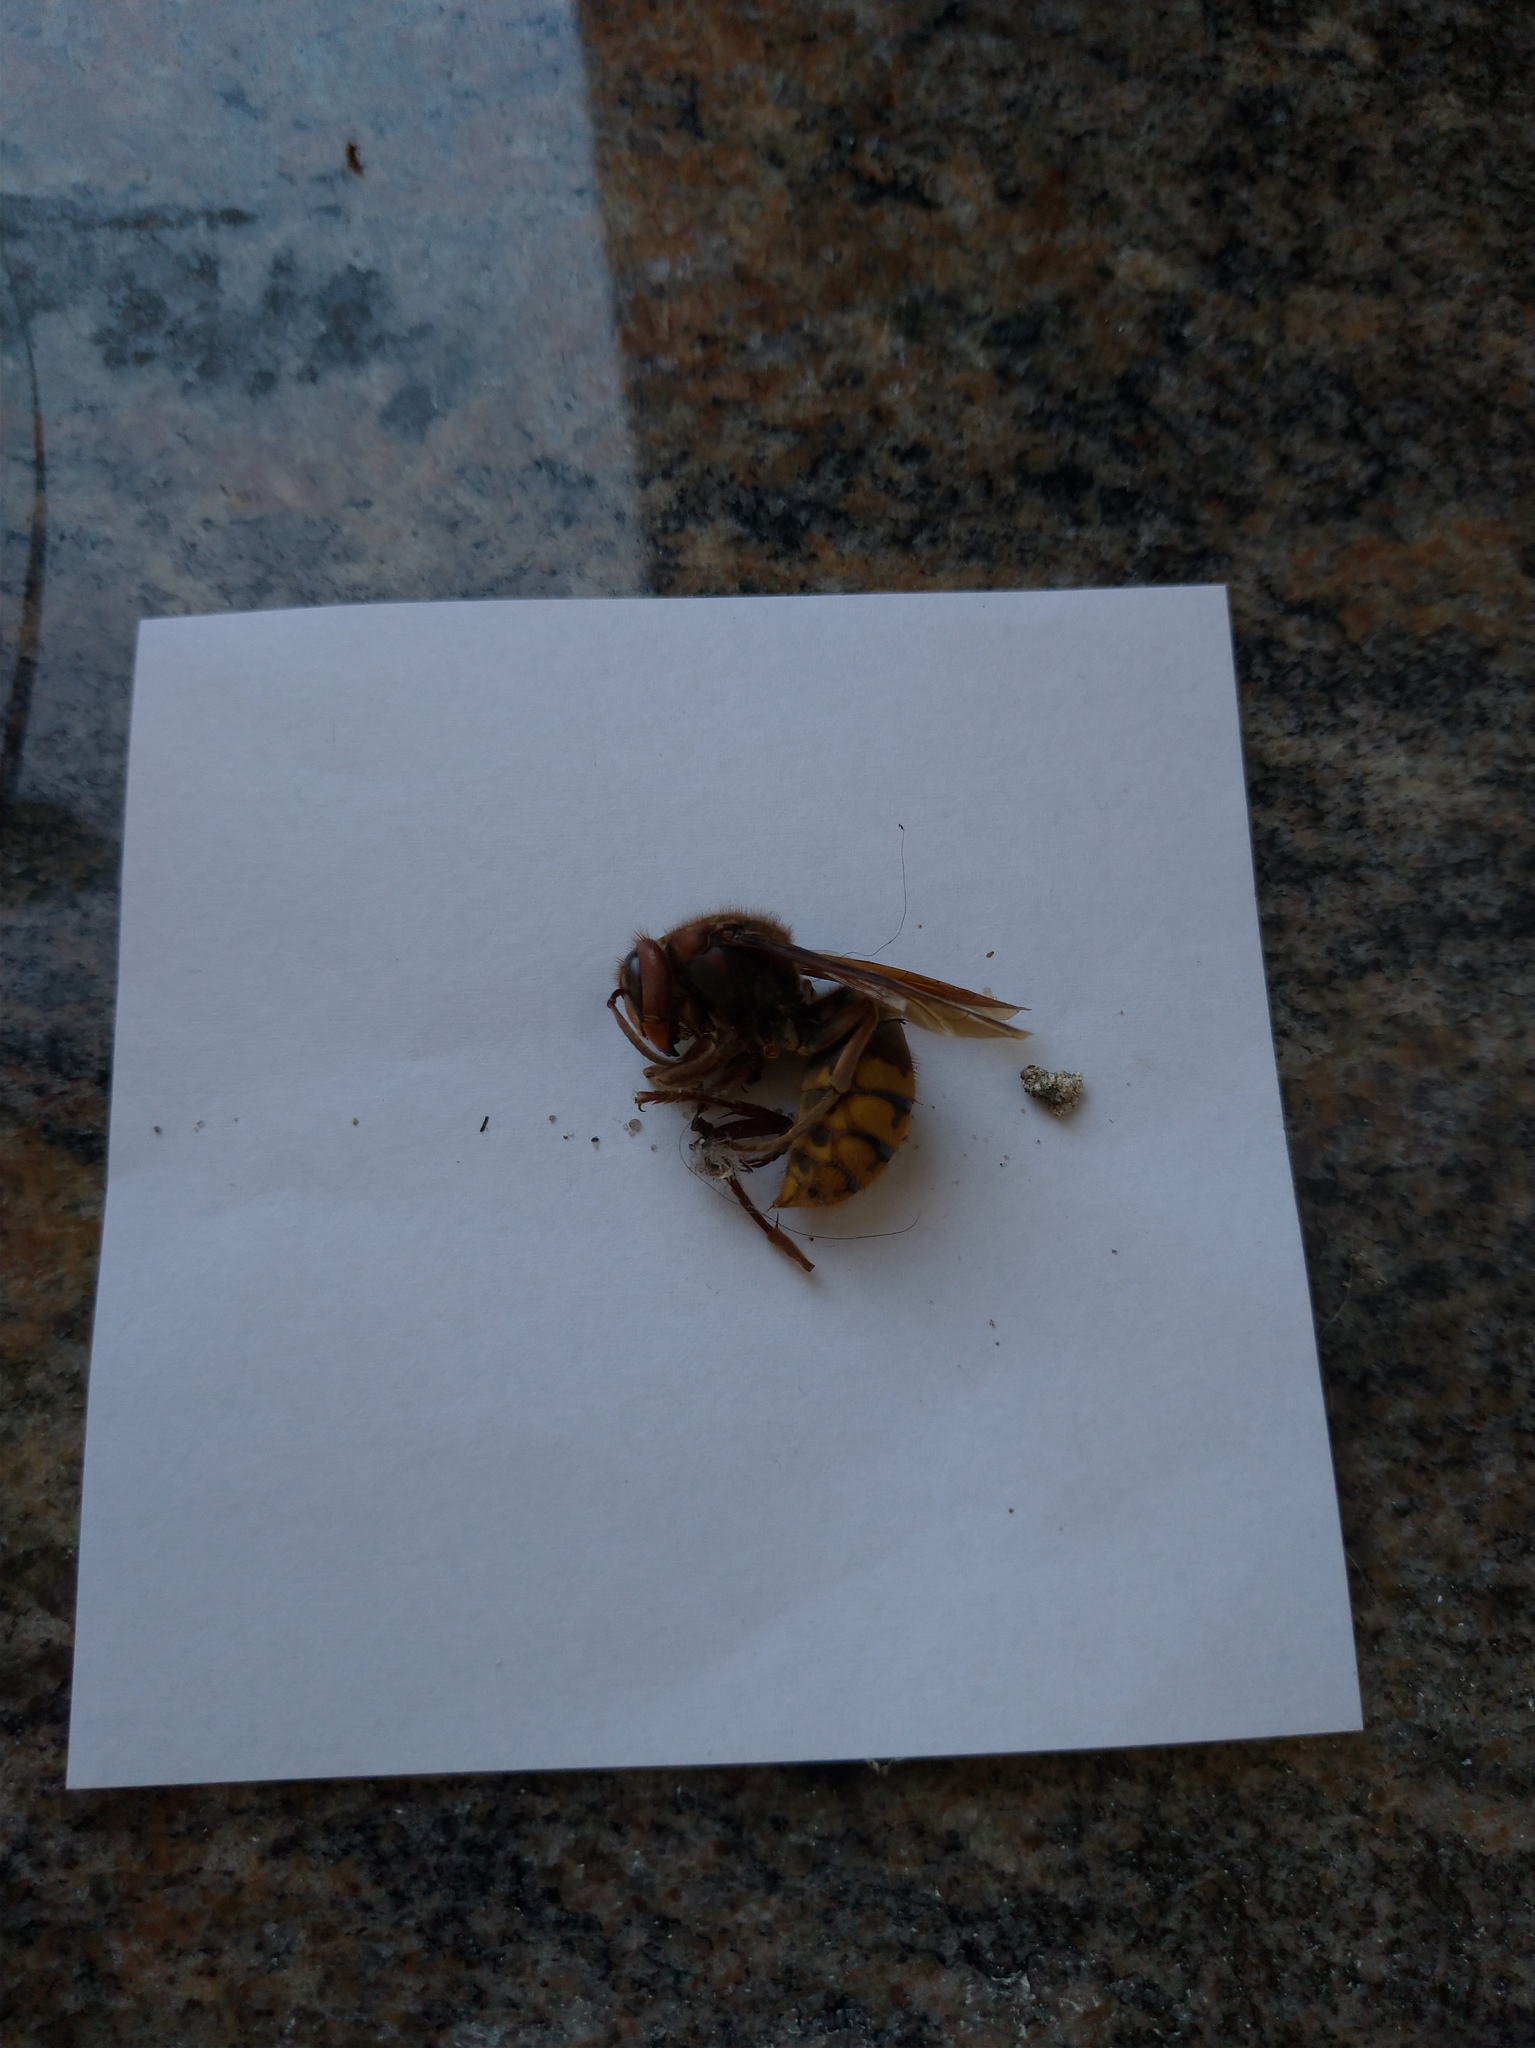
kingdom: Animalia
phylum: Arthropoda
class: Insecta
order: Hymenoptera
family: Vespidae
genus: Vespa
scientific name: Vespa crabro
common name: Hornet
